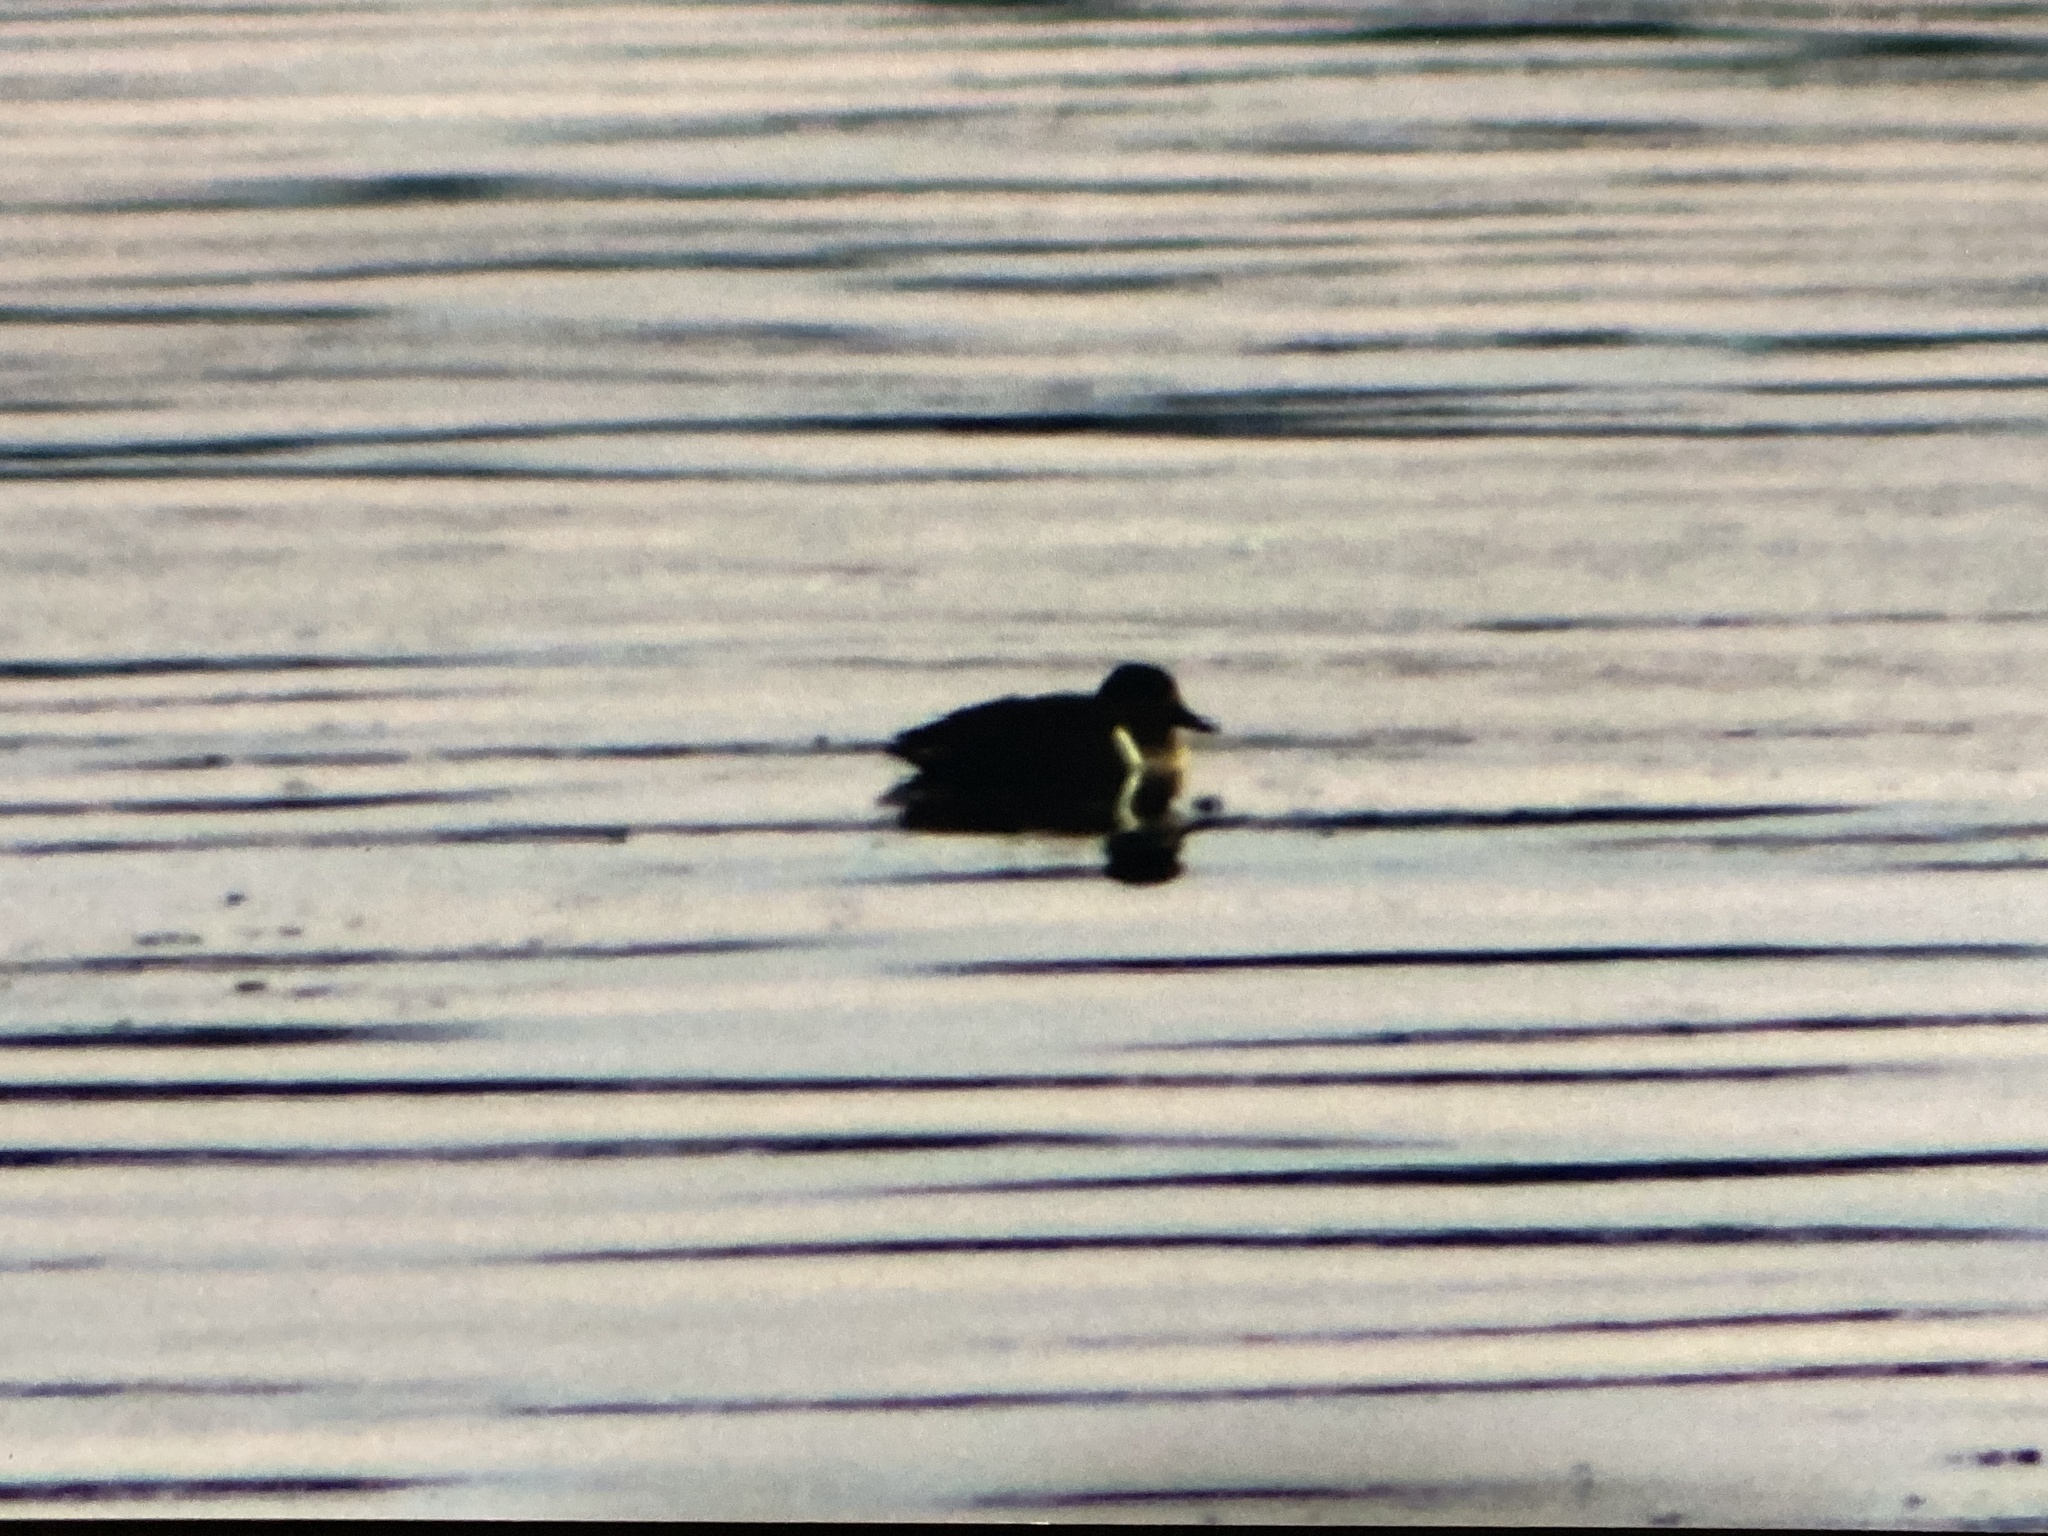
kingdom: Animalia
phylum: Chordata
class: Aves
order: Anseriformes
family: Anatidae
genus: Anas
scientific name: Anas carolinensis
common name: Green-winged teal
